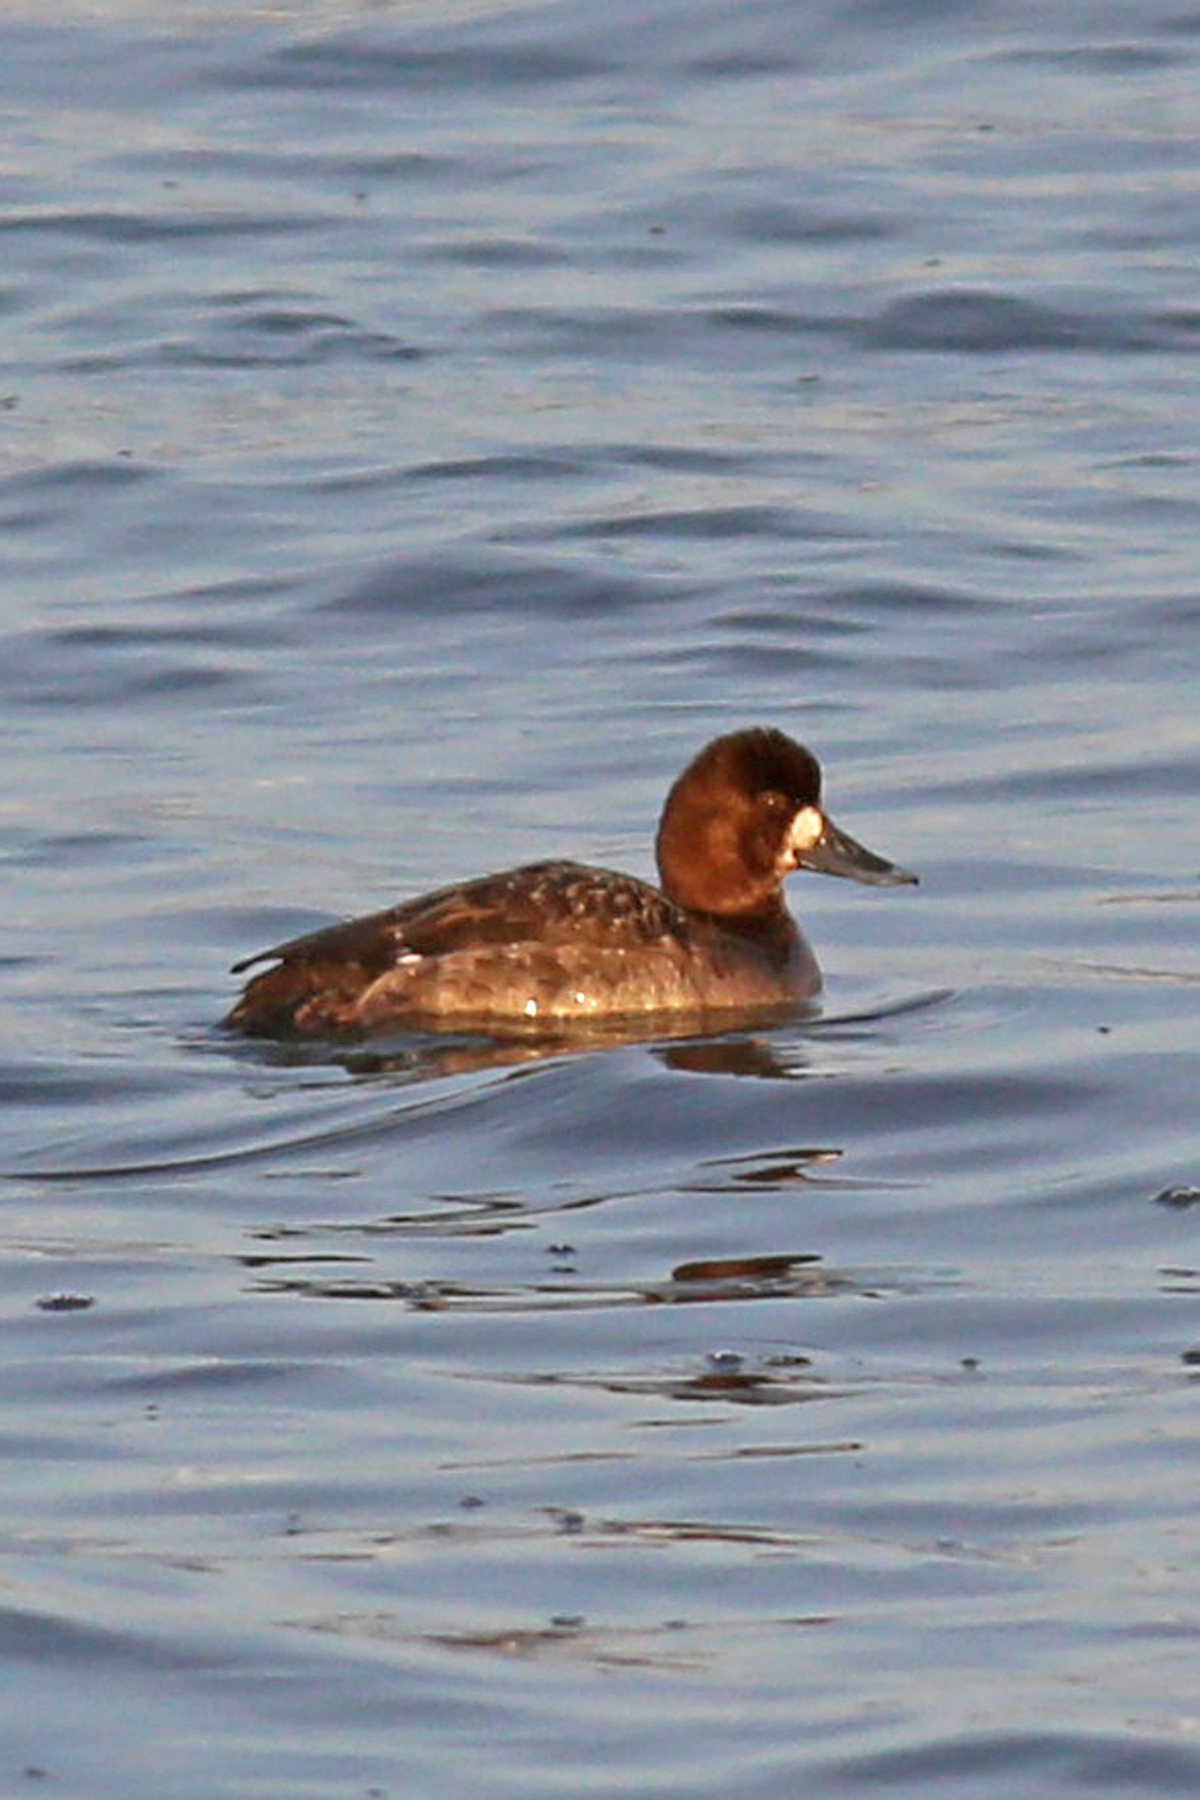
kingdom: Animalia
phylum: Chordata
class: Aves
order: Anseriformes
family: Anatidae
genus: Aythya
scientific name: Aythya marila
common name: Greater scaup
